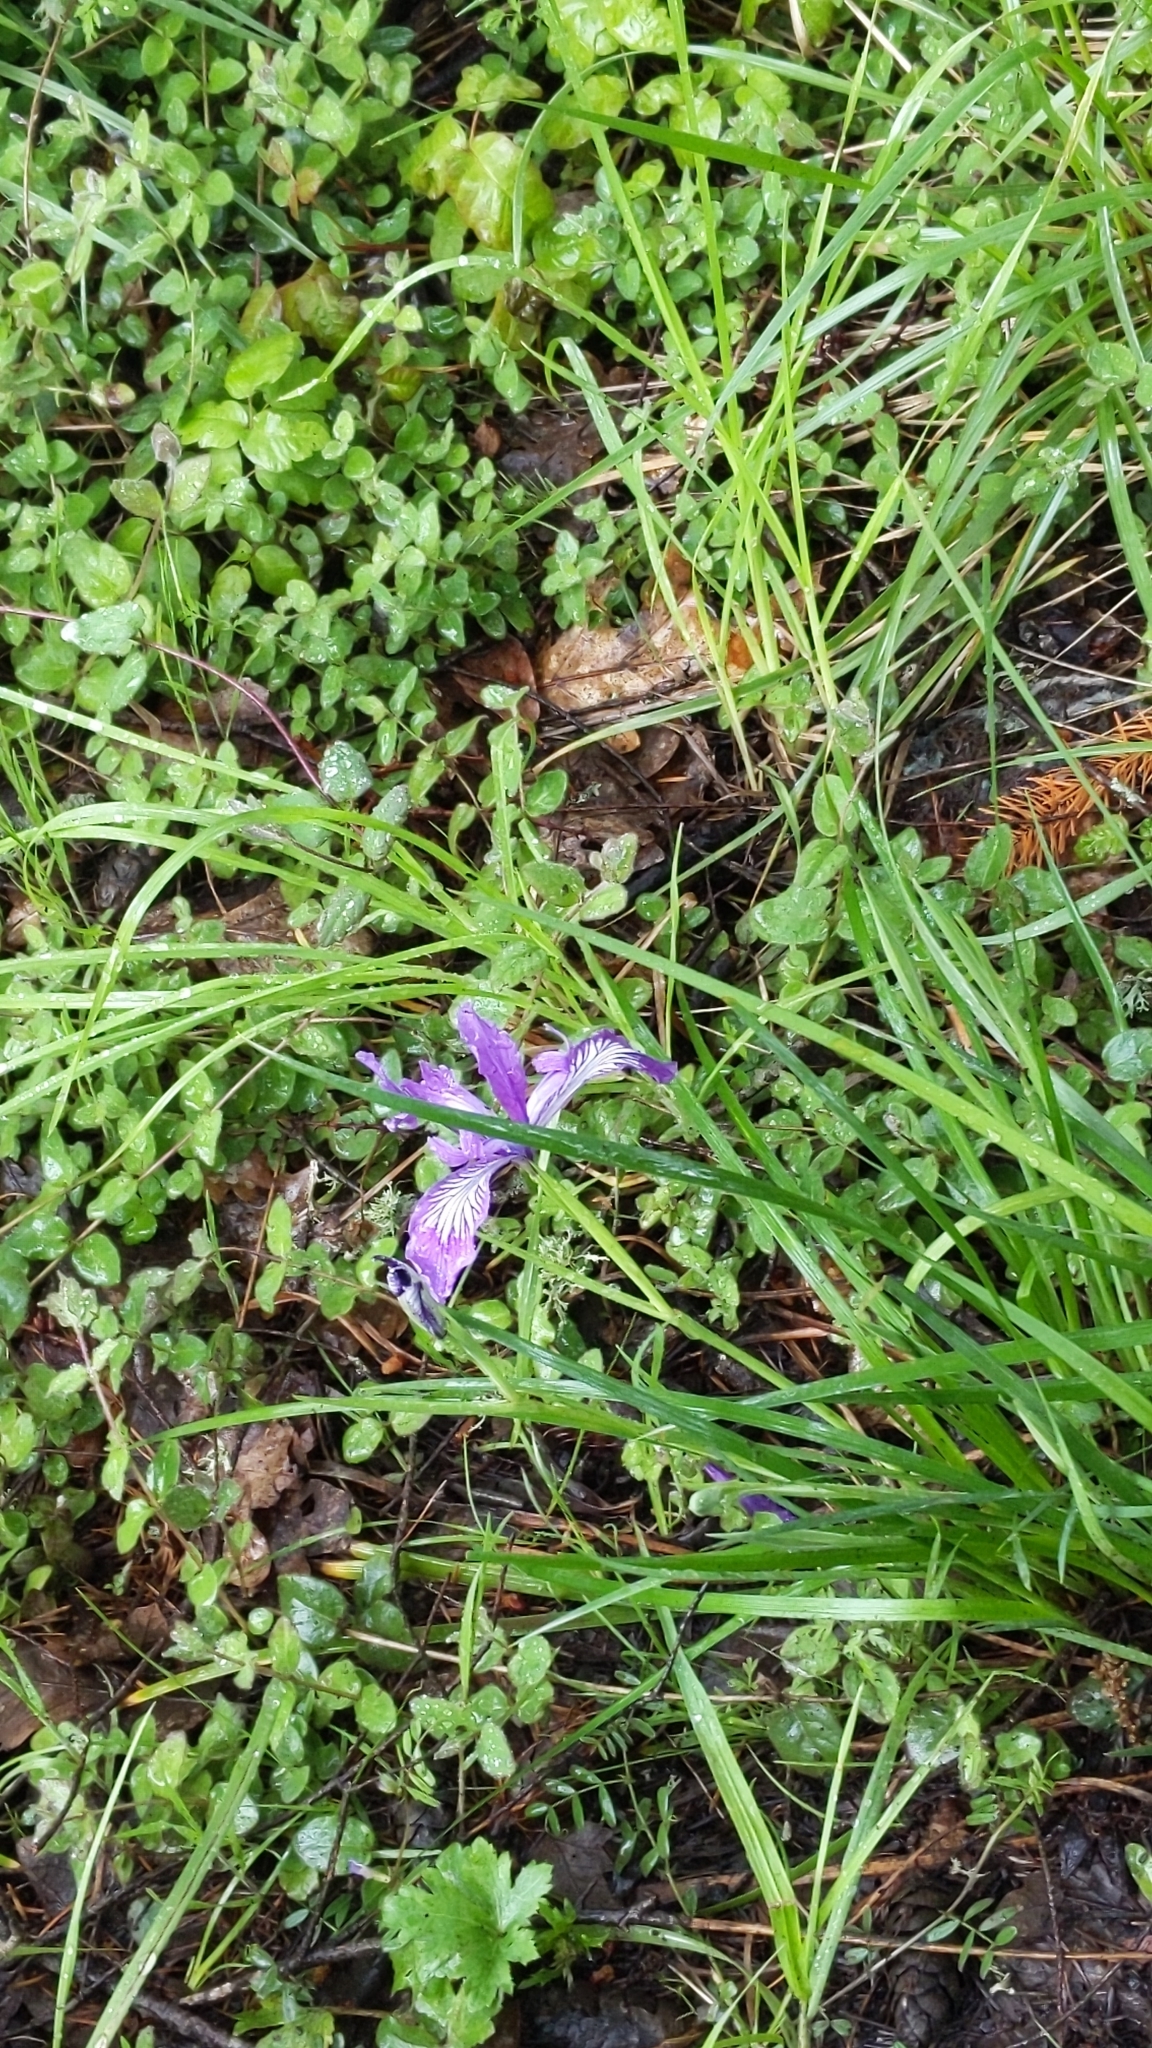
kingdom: Plantae
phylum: Tracheophyta
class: Liliopsida
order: Asparagales
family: Iridaceae
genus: Iris
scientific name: Iris tenax
